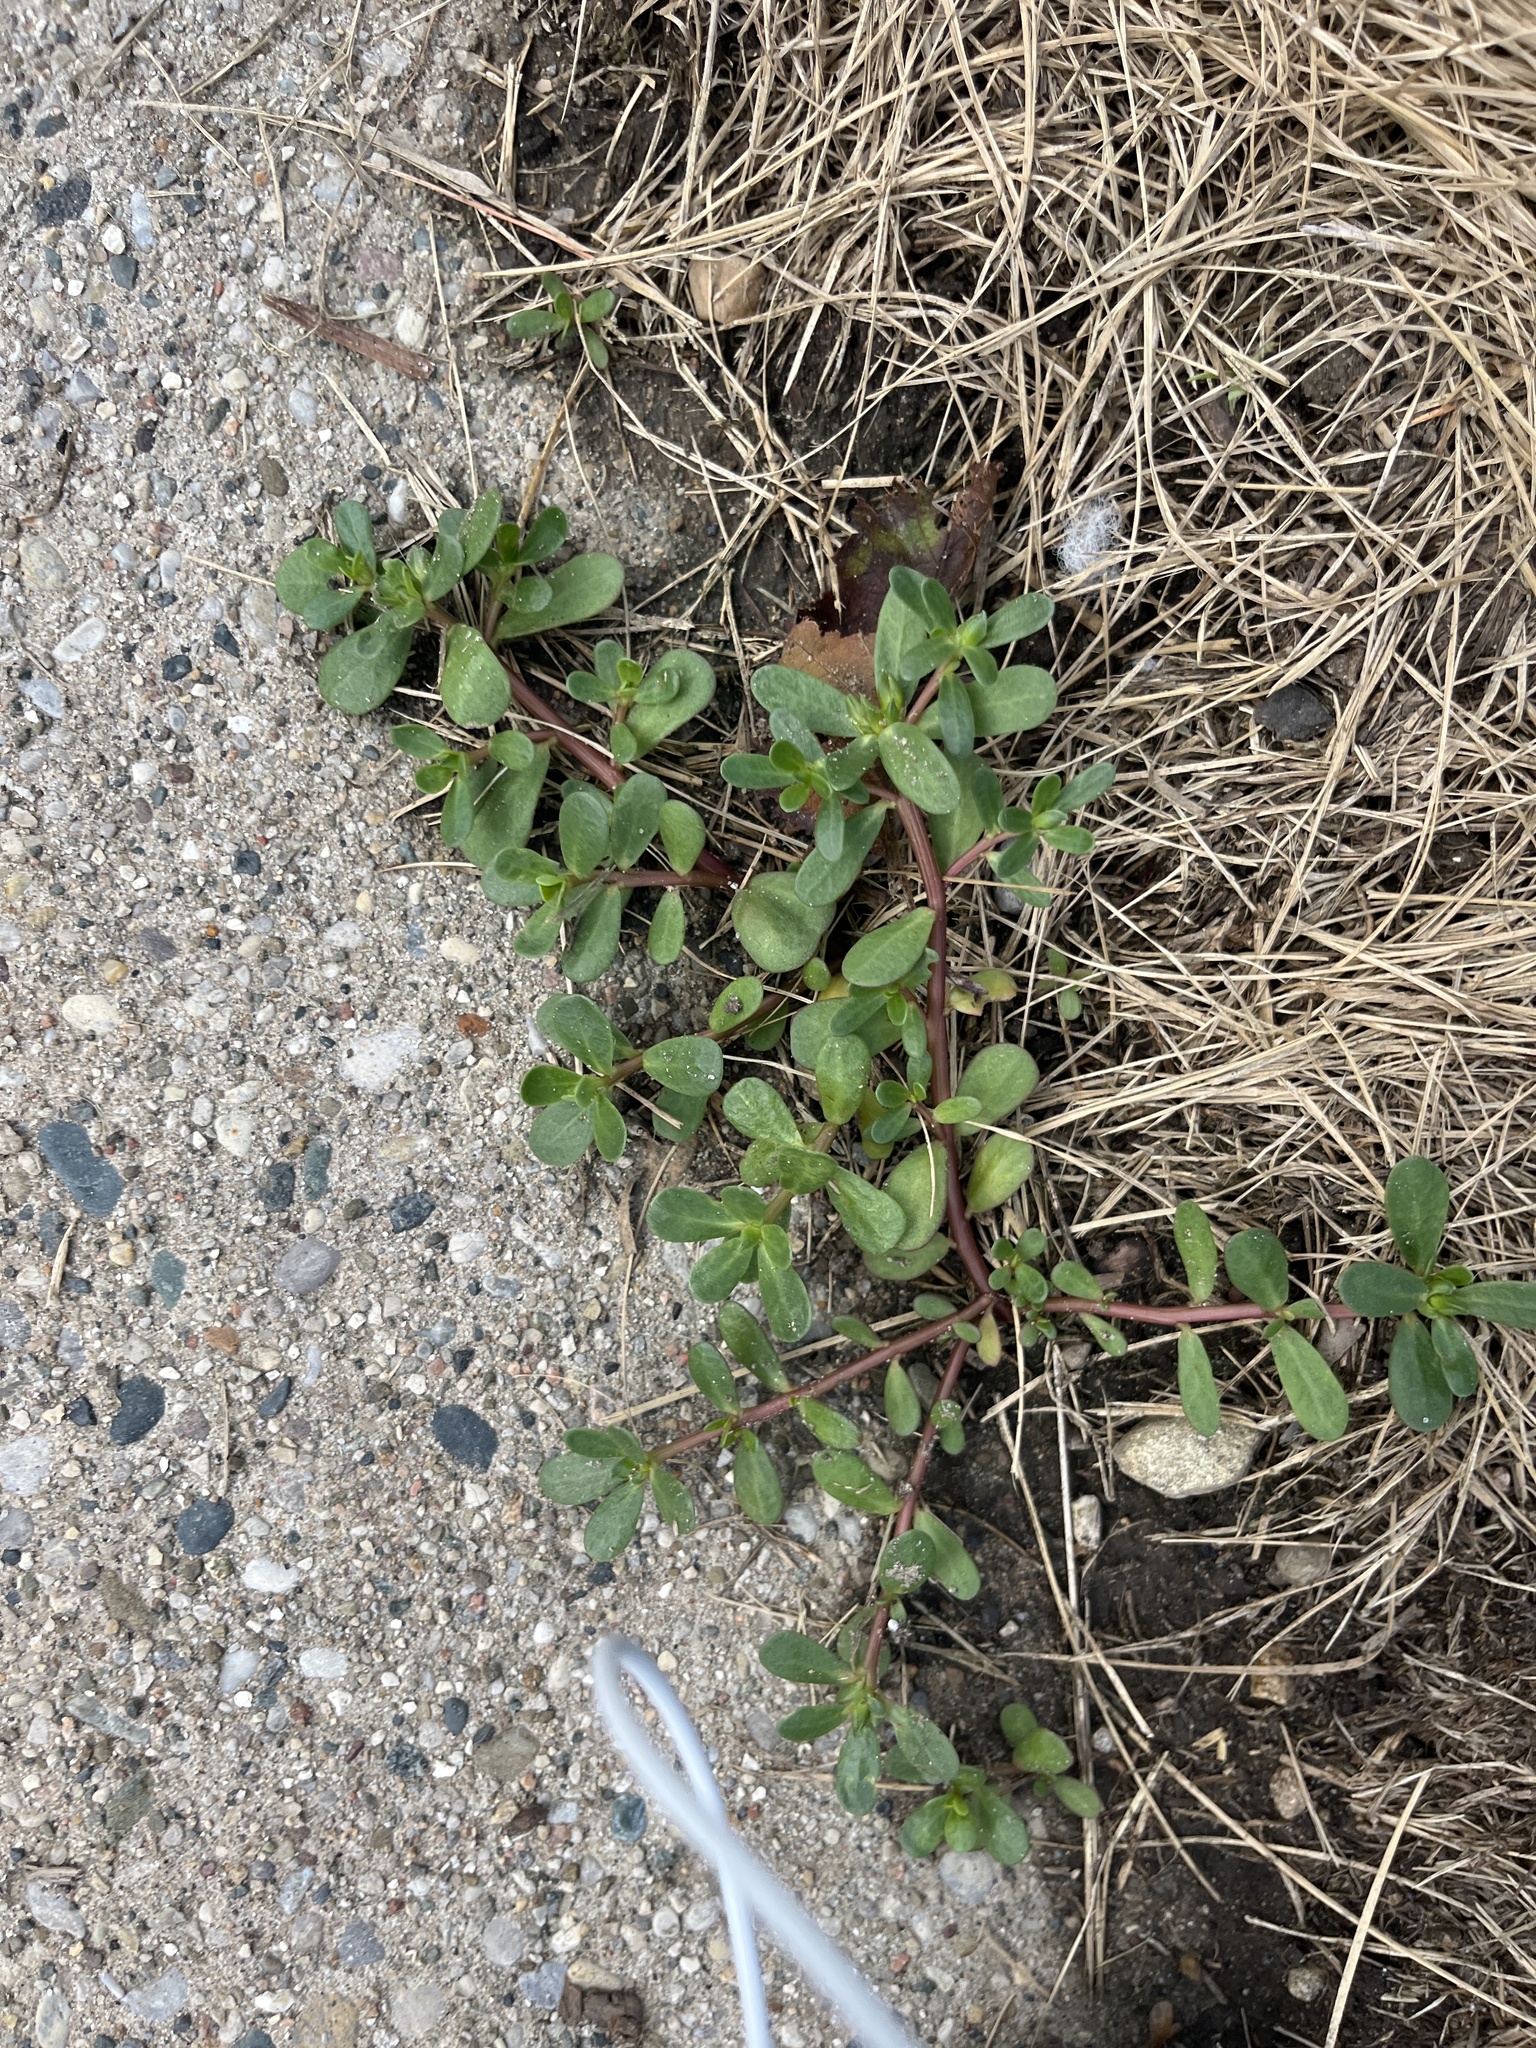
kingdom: Plantae
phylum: Tracheophyta
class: Magnoliopsida
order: Caryophyllales
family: Portulacaceae
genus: Portulaca
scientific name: Portulaca oleracea
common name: Common purslane
